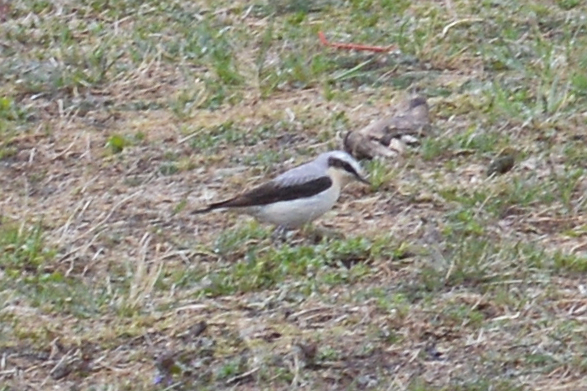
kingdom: Animalia
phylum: Chordata
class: Aves
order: Passeriformes
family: Muscicapidae
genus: Oenanthe
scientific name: Oenanthe oenanthe
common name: Northern wheatear
